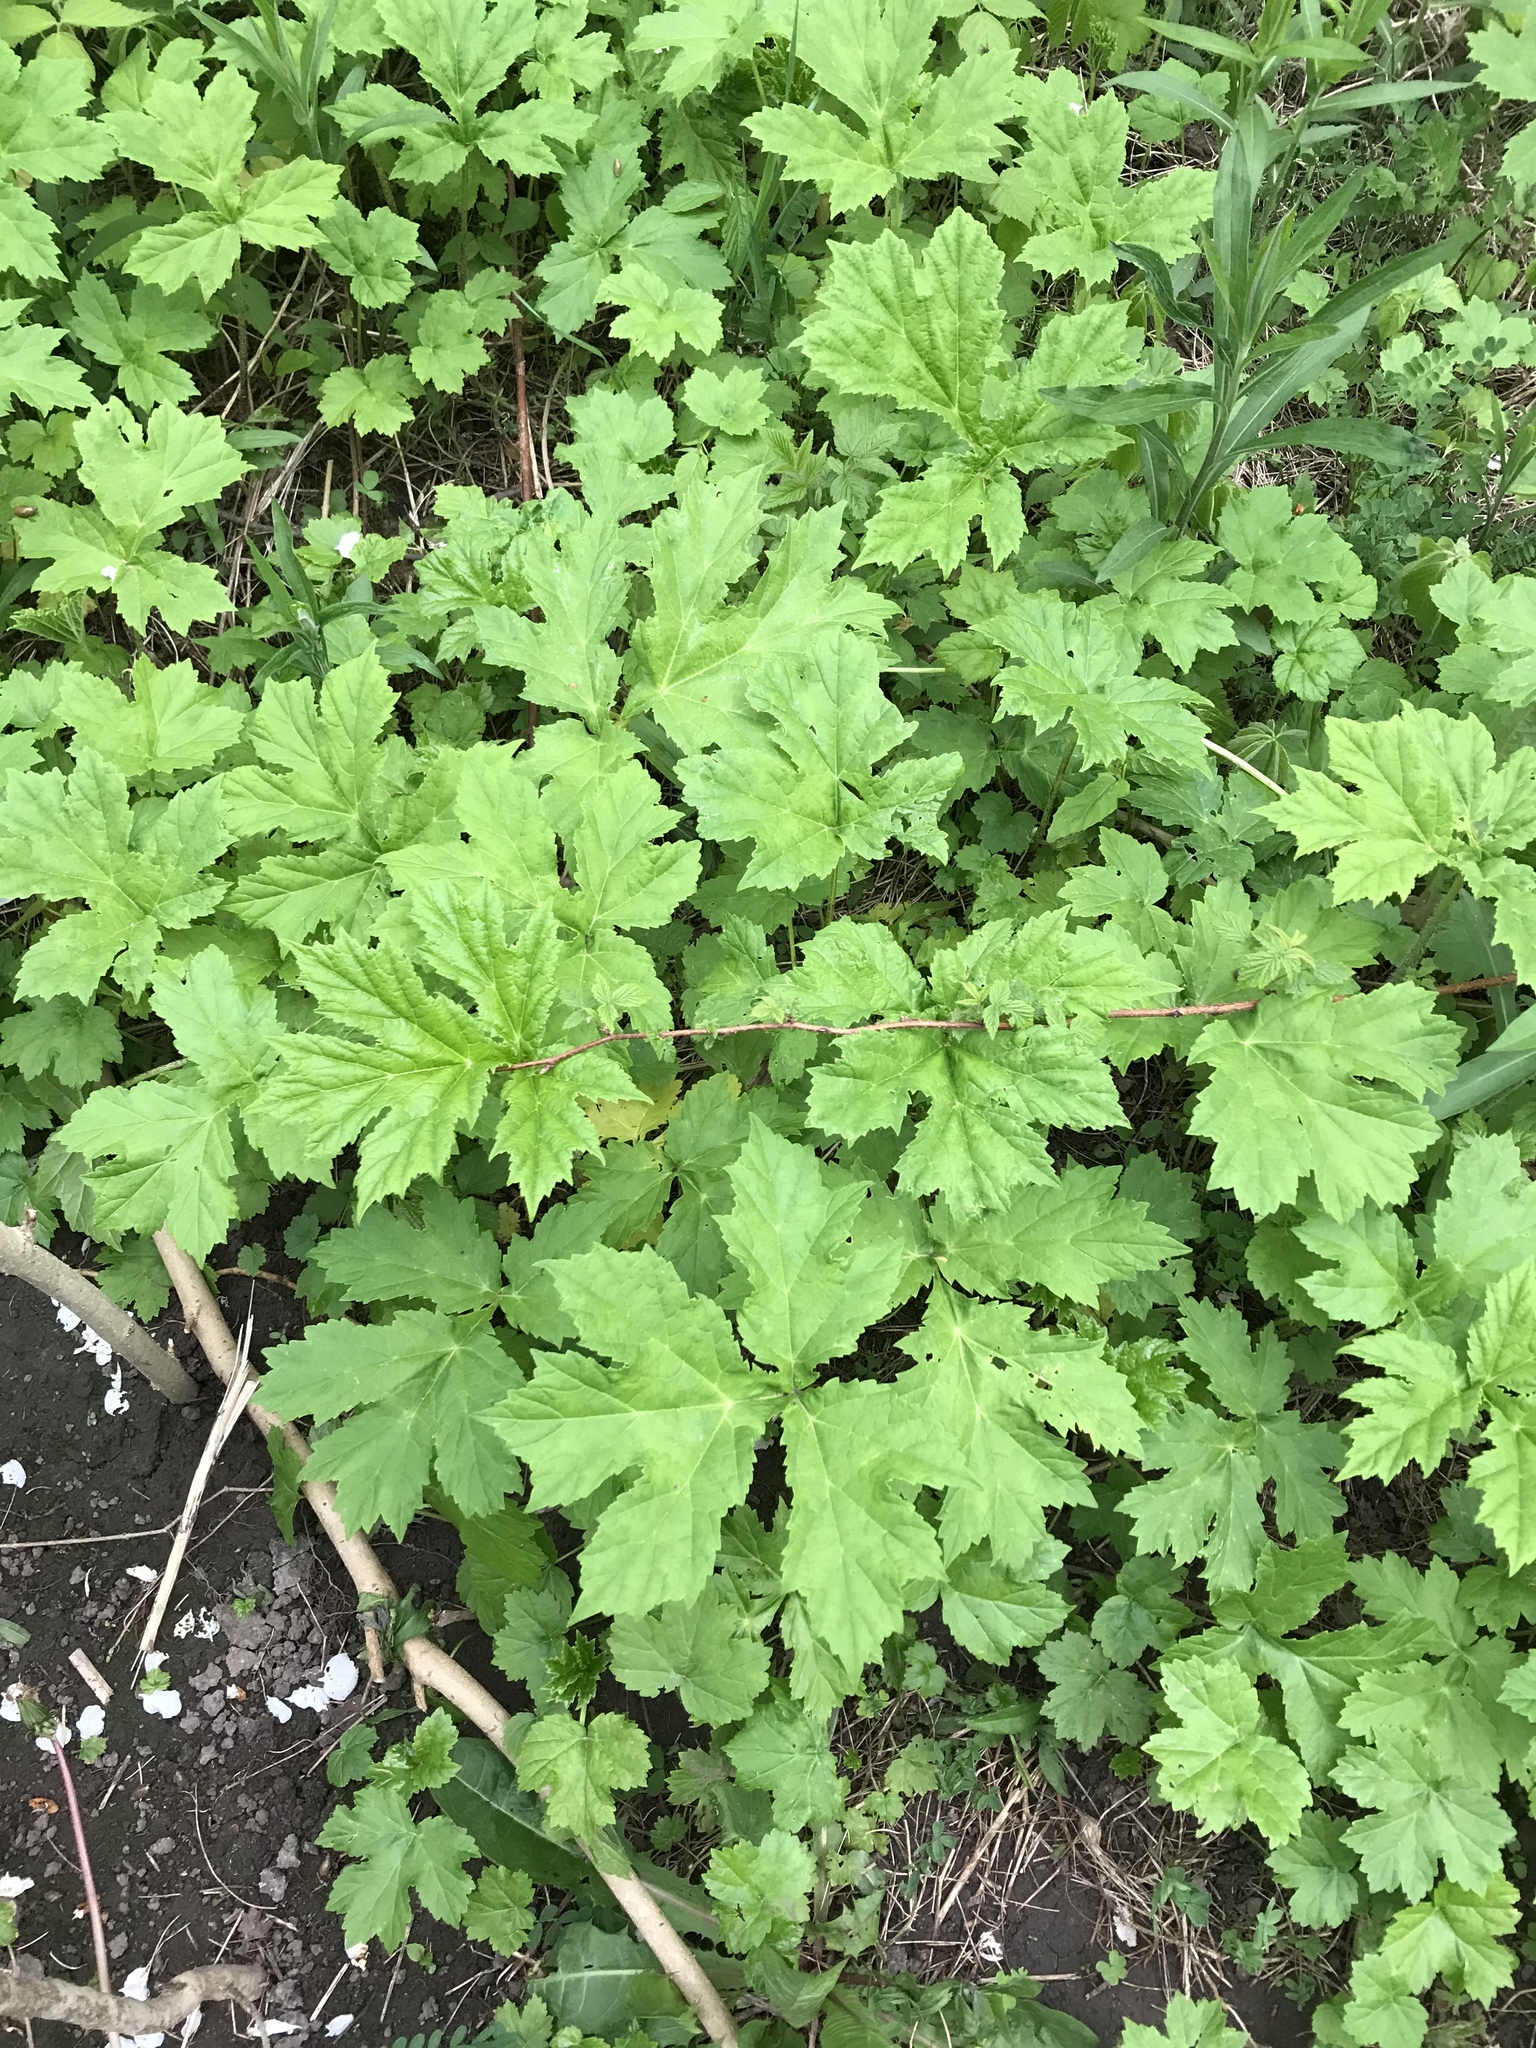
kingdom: Plantae
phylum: Tracheophyta
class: Magnoliopsida
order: Apiales
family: Apiaceae
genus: Heracleum
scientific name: Heracleum mantegazzianum
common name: Giant hogweed
